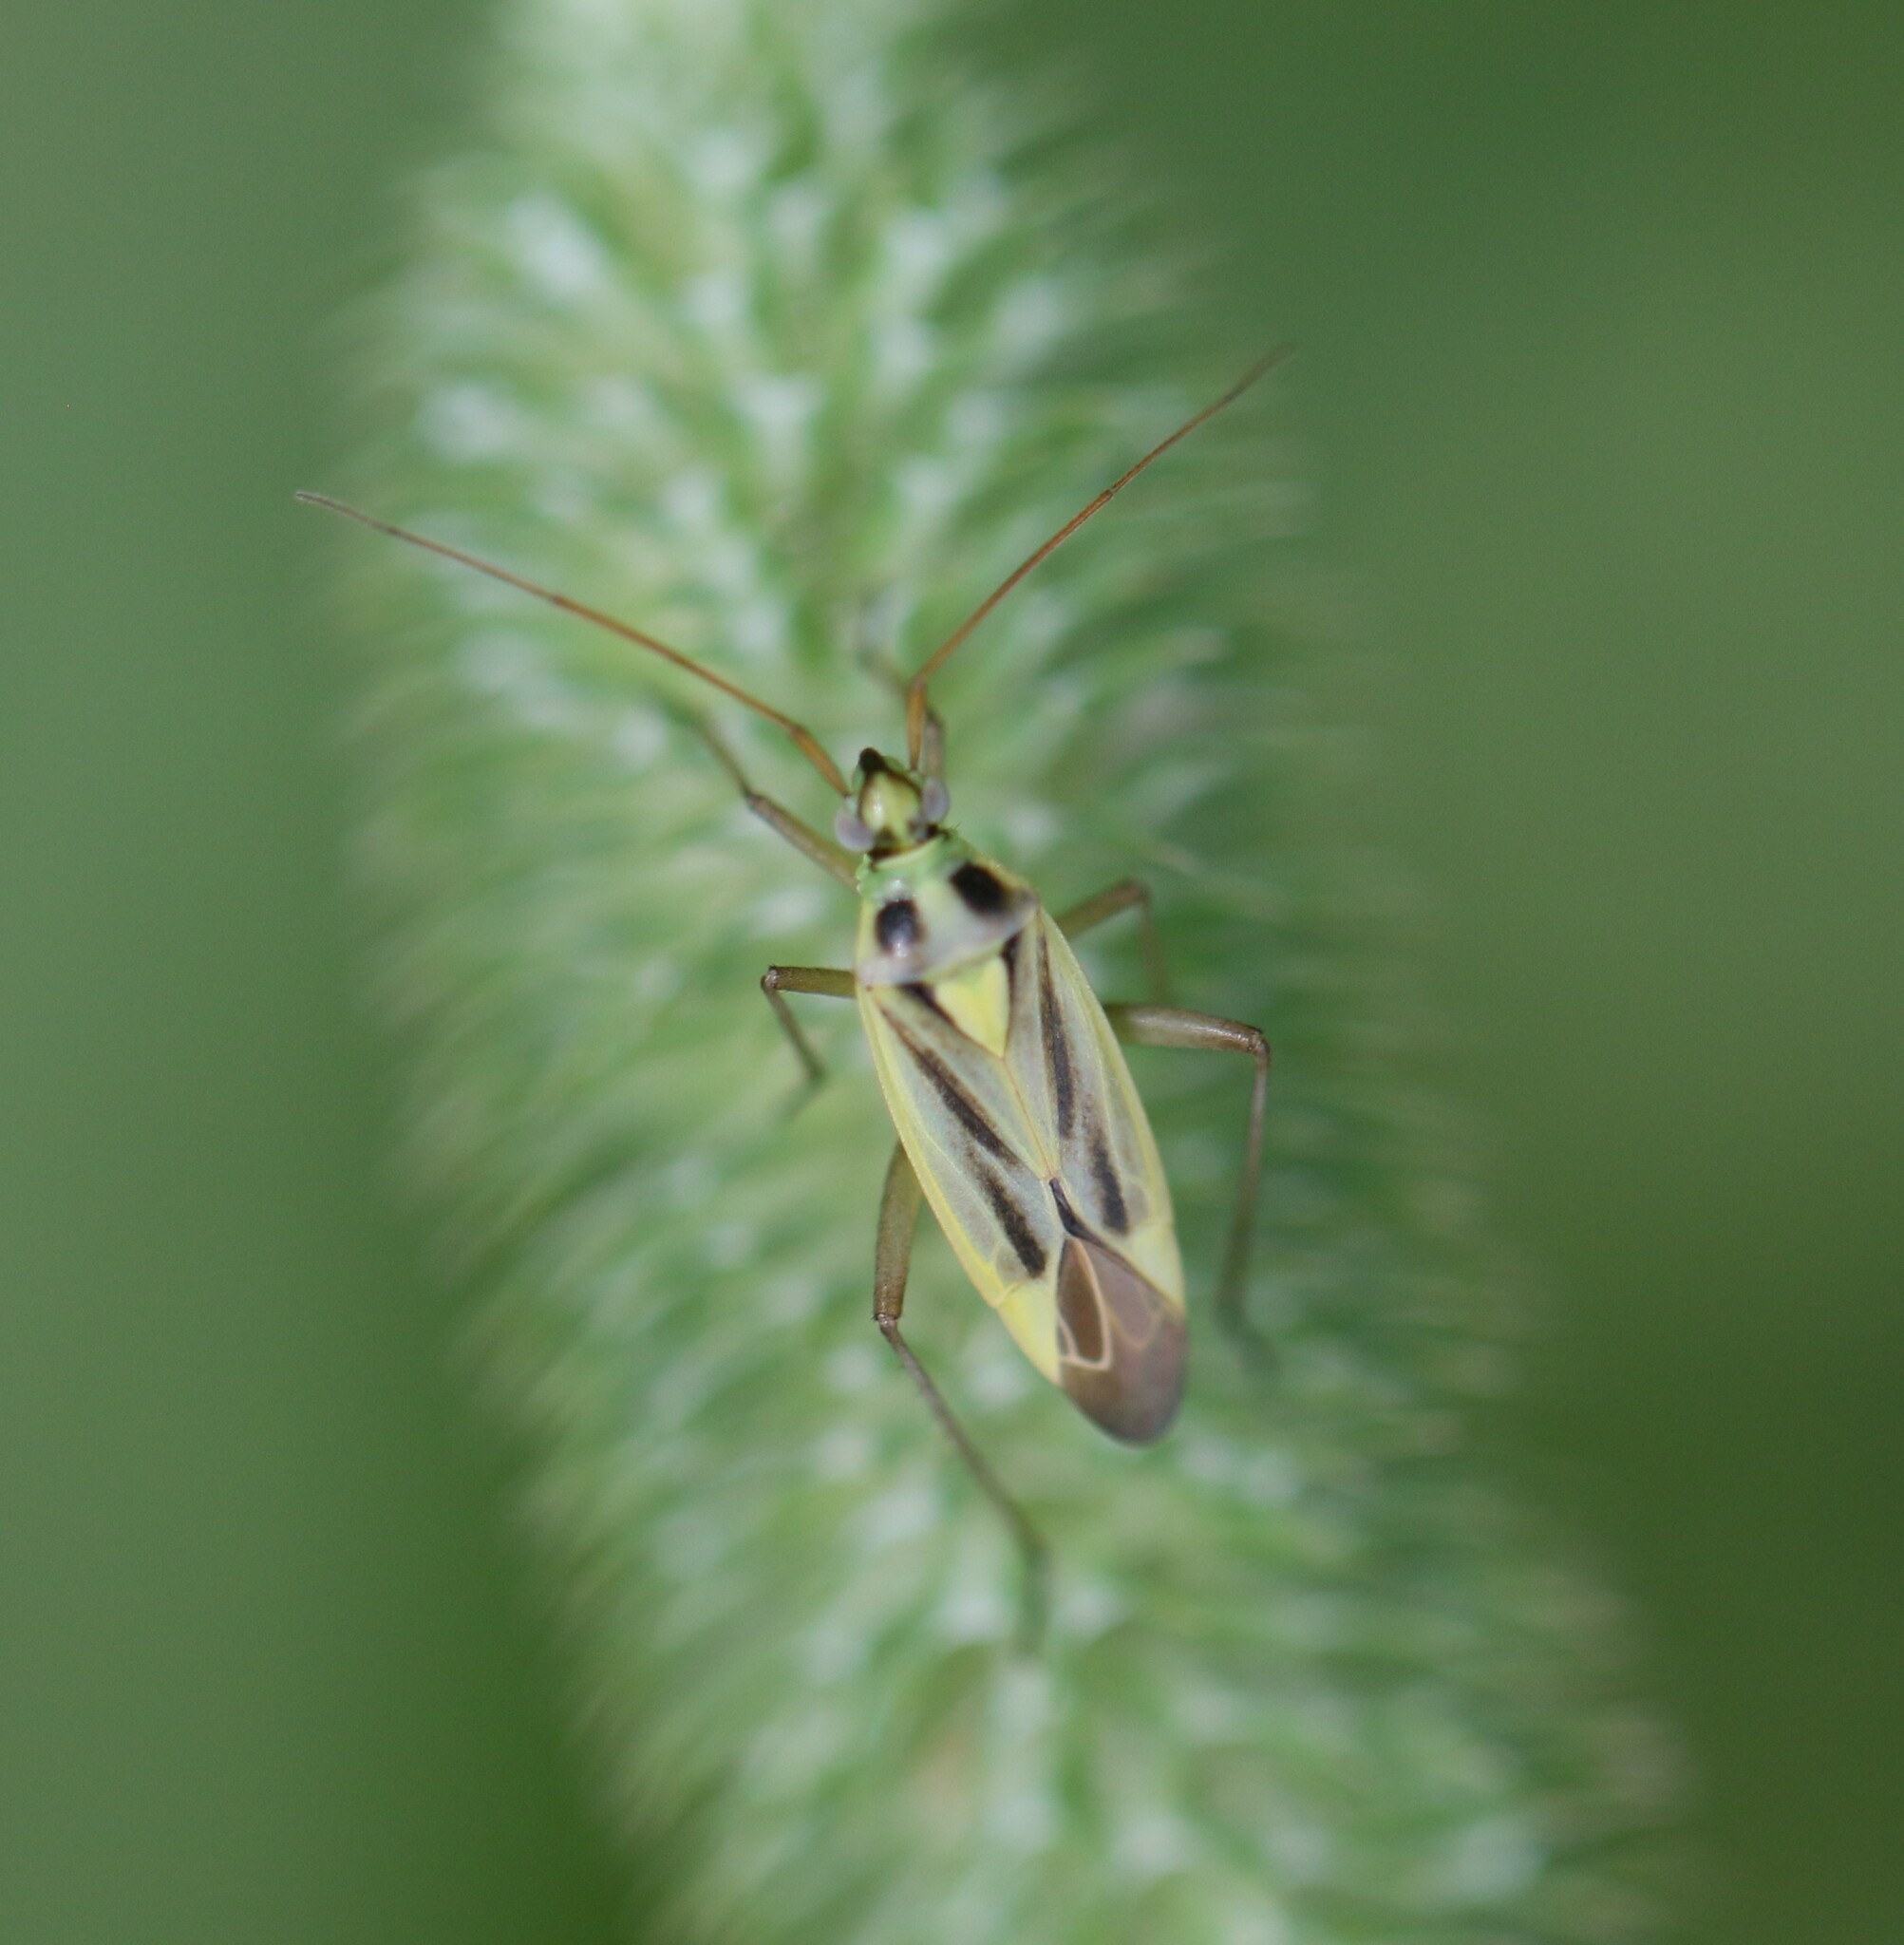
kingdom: Animalia
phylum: Arthropoda
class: Insecta
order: Hemiptera
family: Miridae
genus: Stenotus
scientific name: Stenotus binotatus
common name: Plant bug
